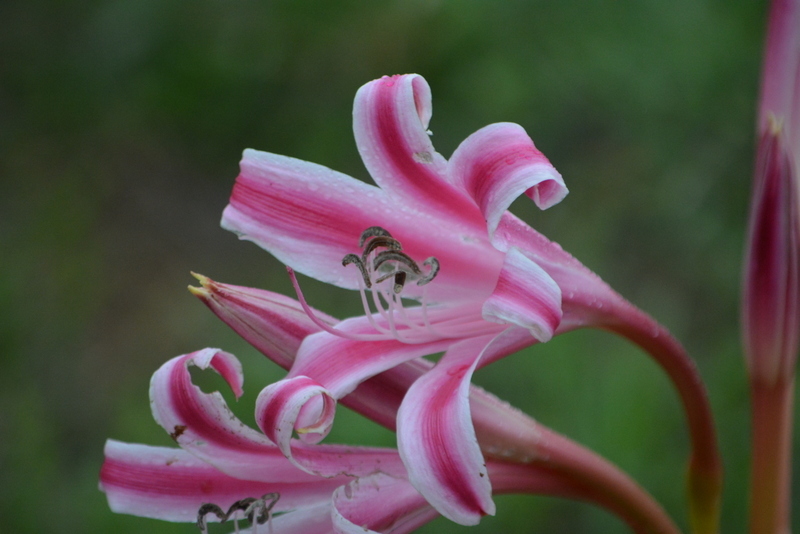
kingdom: Plantae
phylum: Tracheophyta
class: Liliopsida
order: Asparagales
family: Amaryllidaceae
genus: Crinum
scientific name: Crinum stuhlmannii
